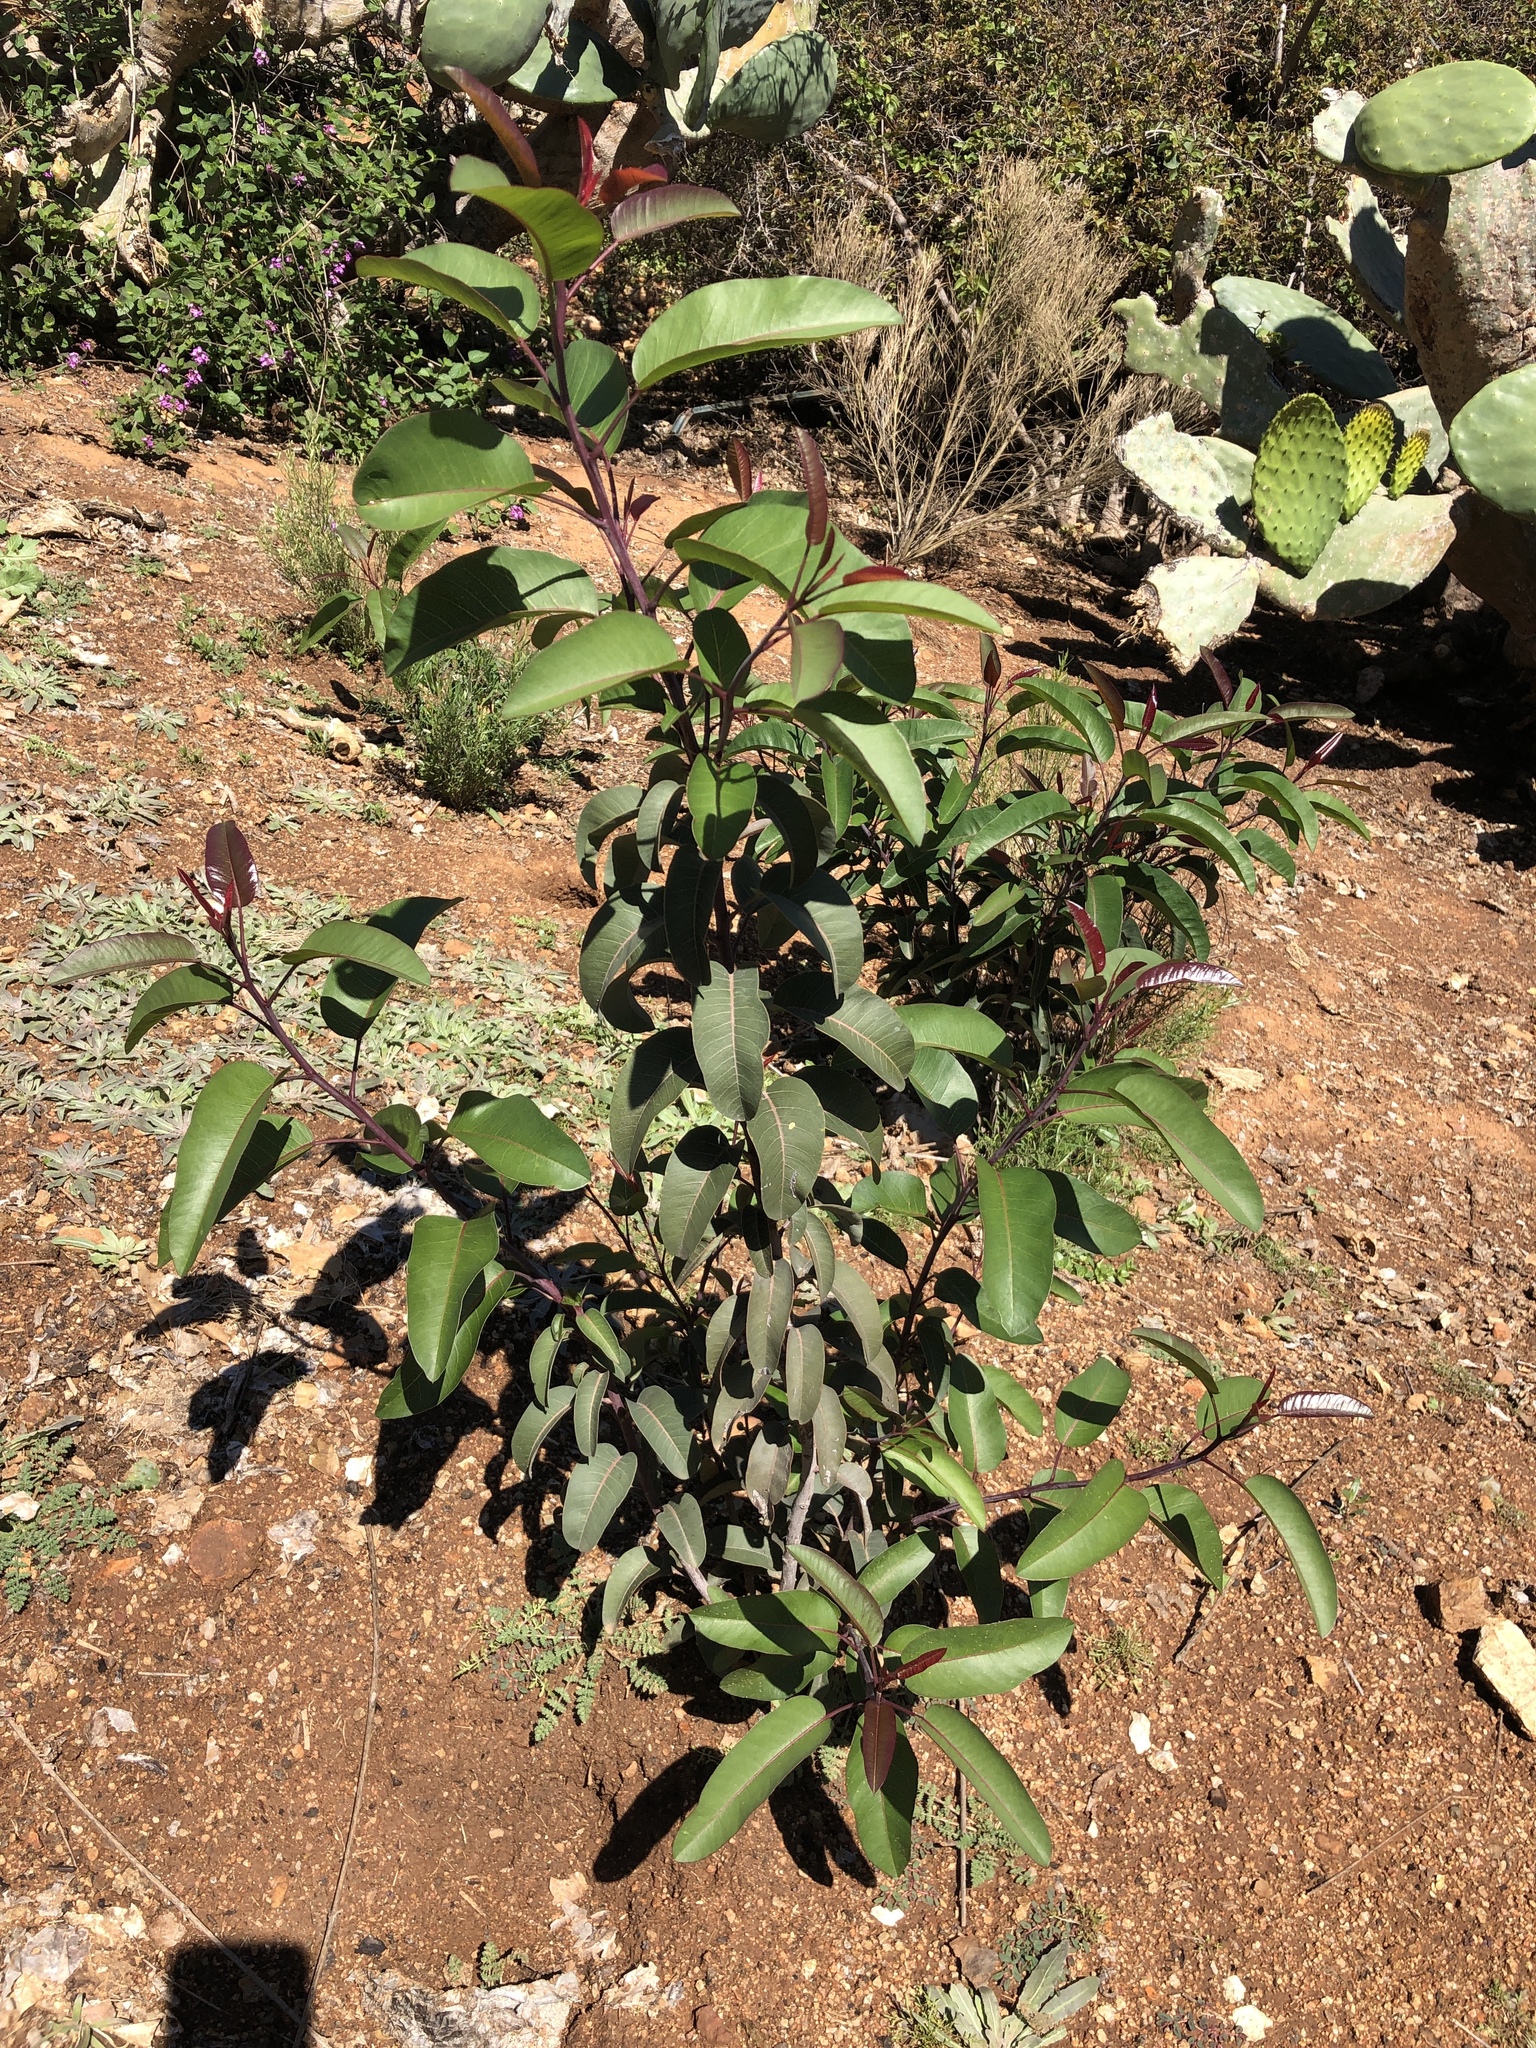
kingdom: Plantae
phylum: Tracheophyta
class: Magnoliopsida
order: Sapindales
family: Anacardiaceae
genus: Malosma
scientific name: Malosma laurina
